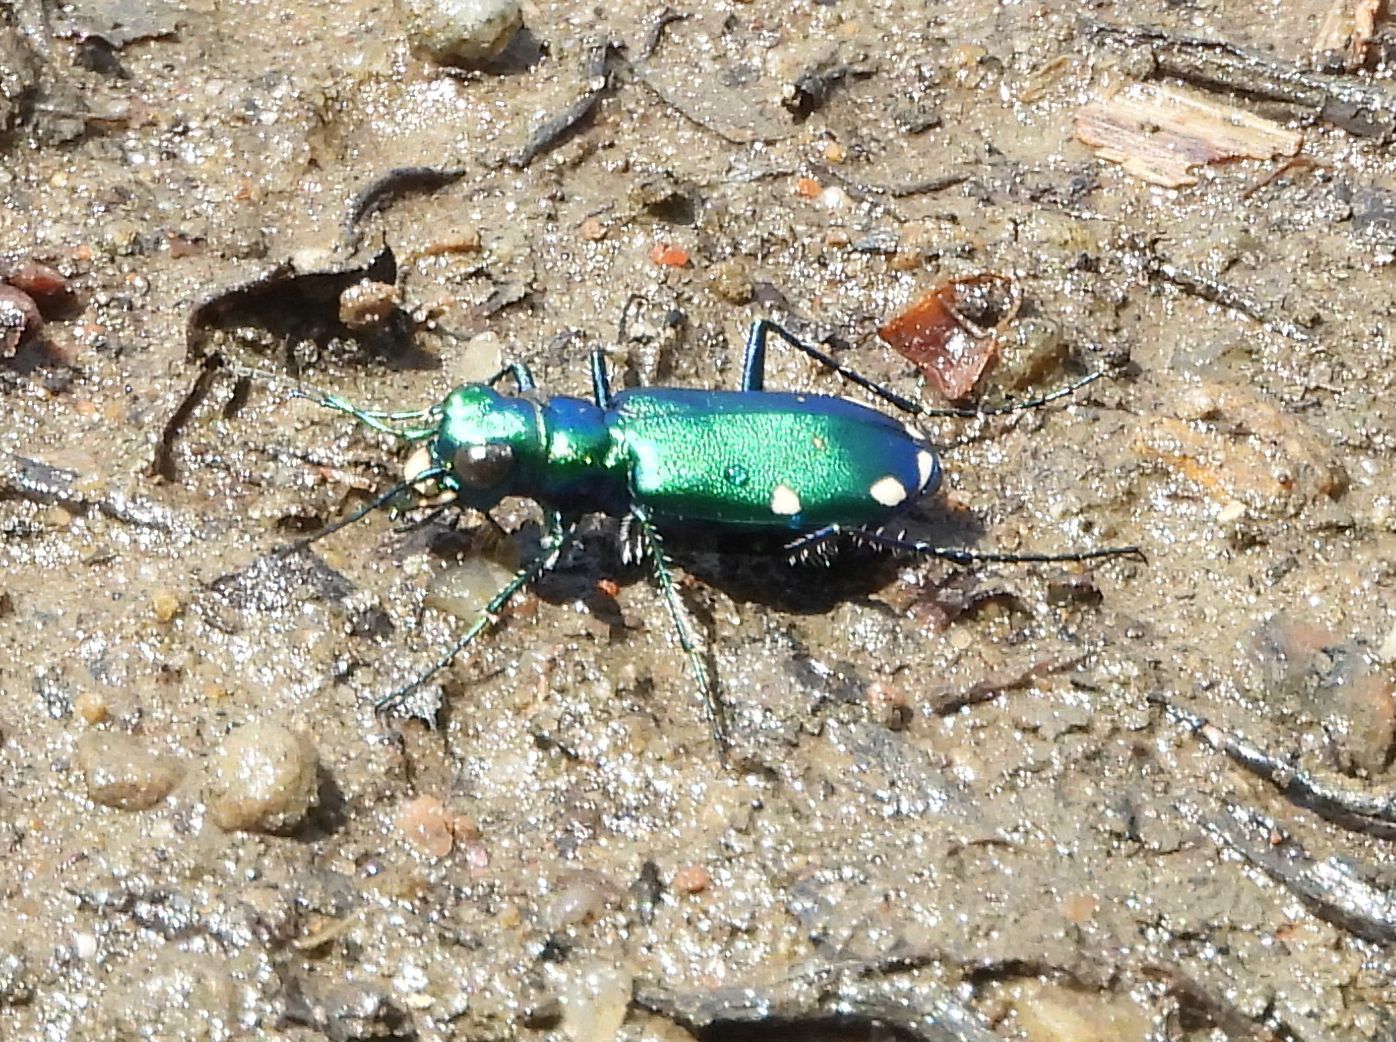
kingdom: Animalia
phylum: Arthropoda
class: Insecta
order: Coleoptera
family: Carabidae
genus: Cicindela
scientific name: Cicindela sexguttata
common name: Six-spotted tiger beetle
